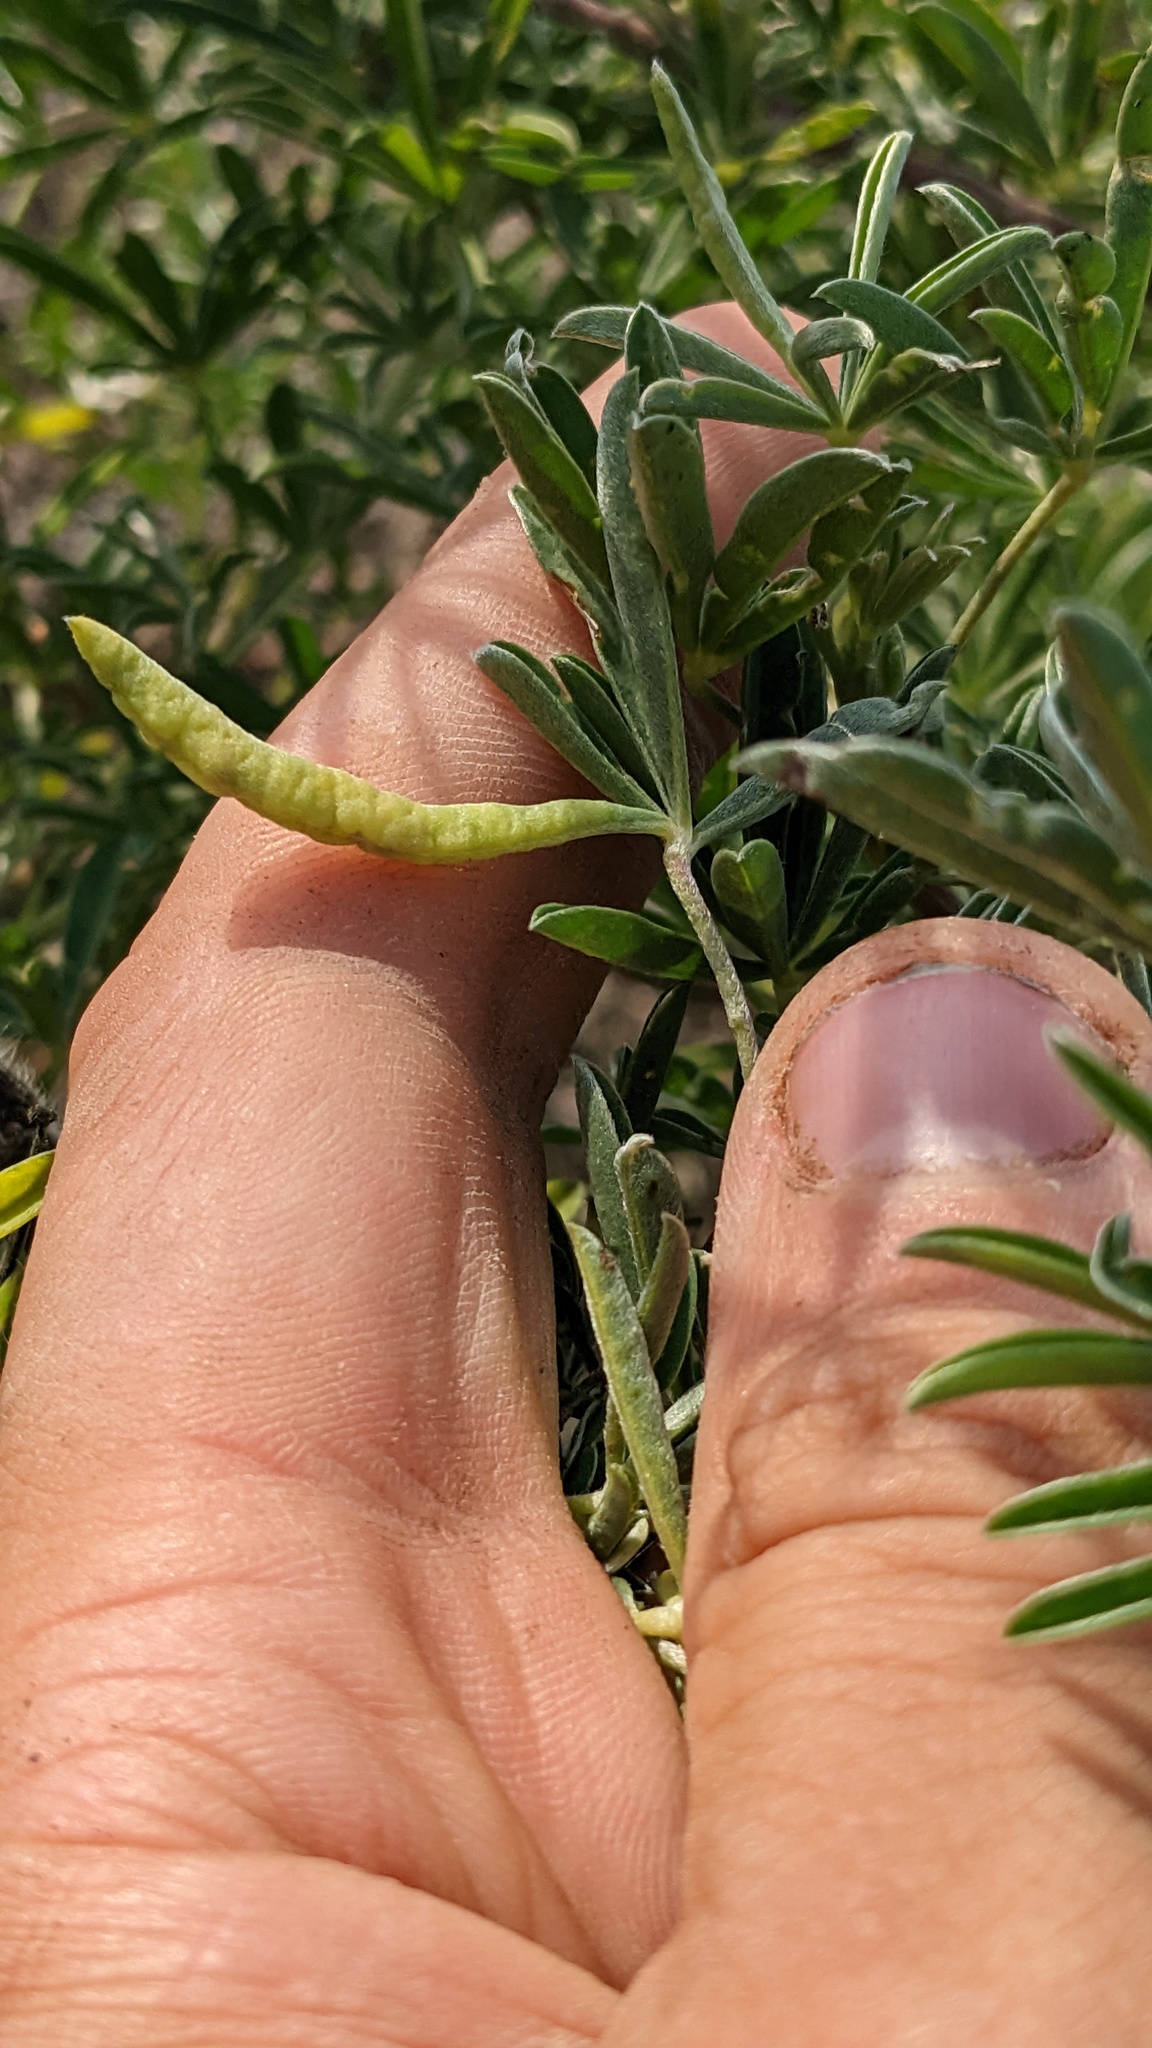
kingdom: Animalia
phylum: Arthropoda
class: Insecta
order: Diptera
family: Cecidomyiidae
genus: Dasineura
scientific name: Dasineura lupinorum
